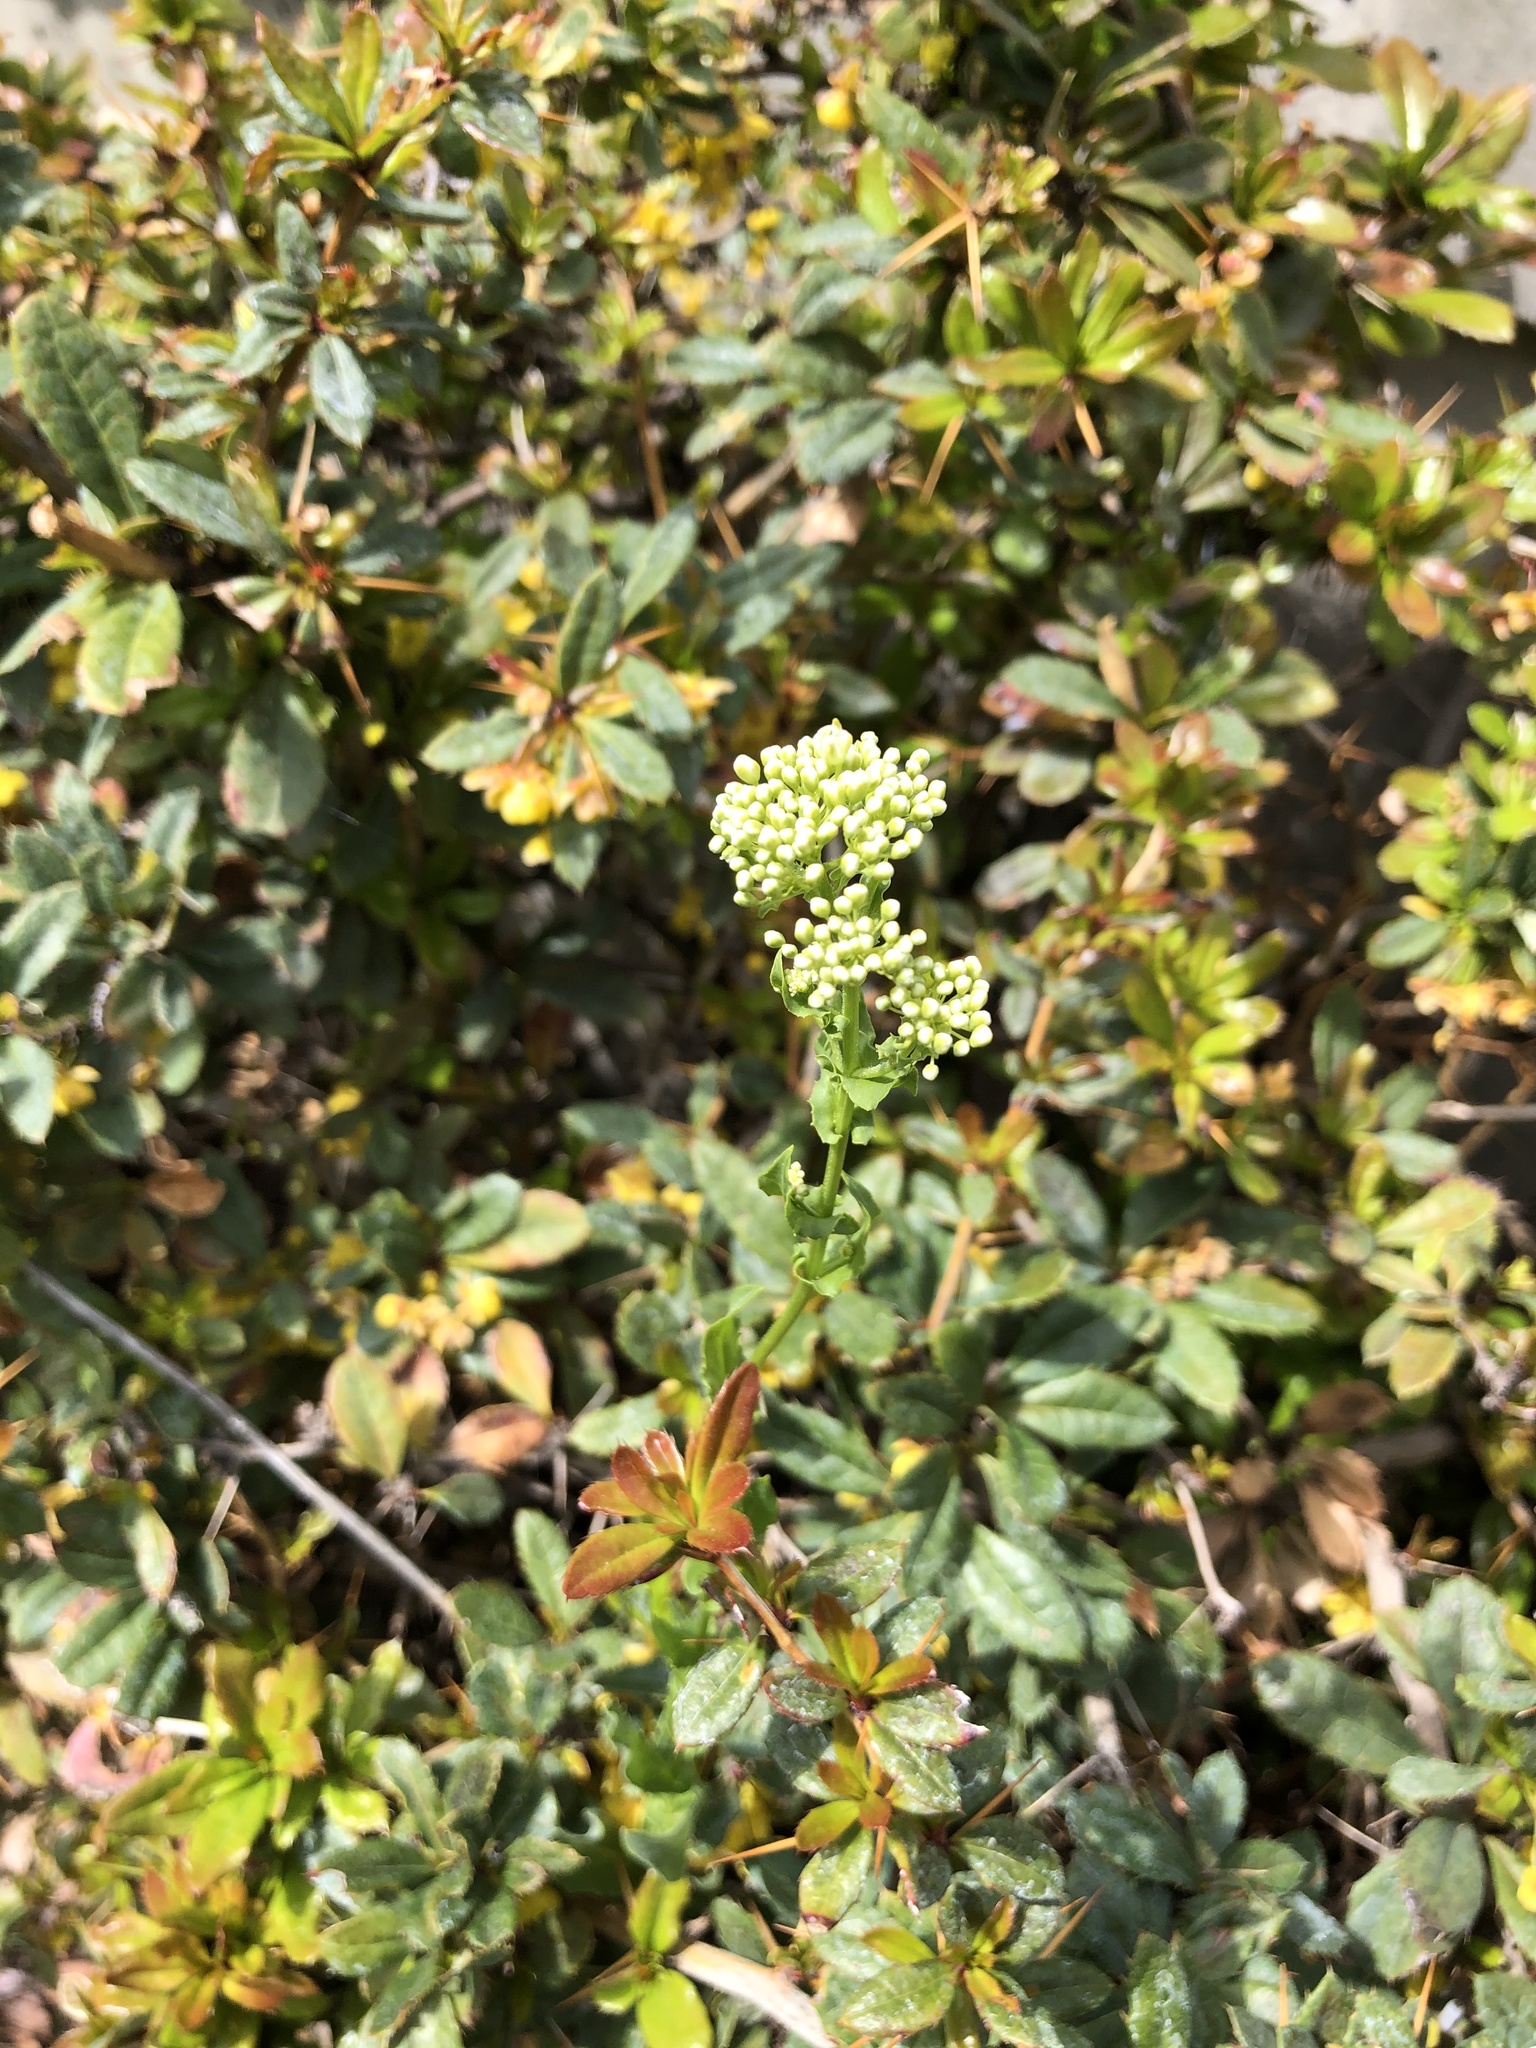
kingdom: Plantae
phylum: Tracheophyta
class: Magnoliopsida
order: Brassicales
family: Brassicaceae
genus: Lepidium
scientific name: Lepidium draba
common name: Hoary cress
